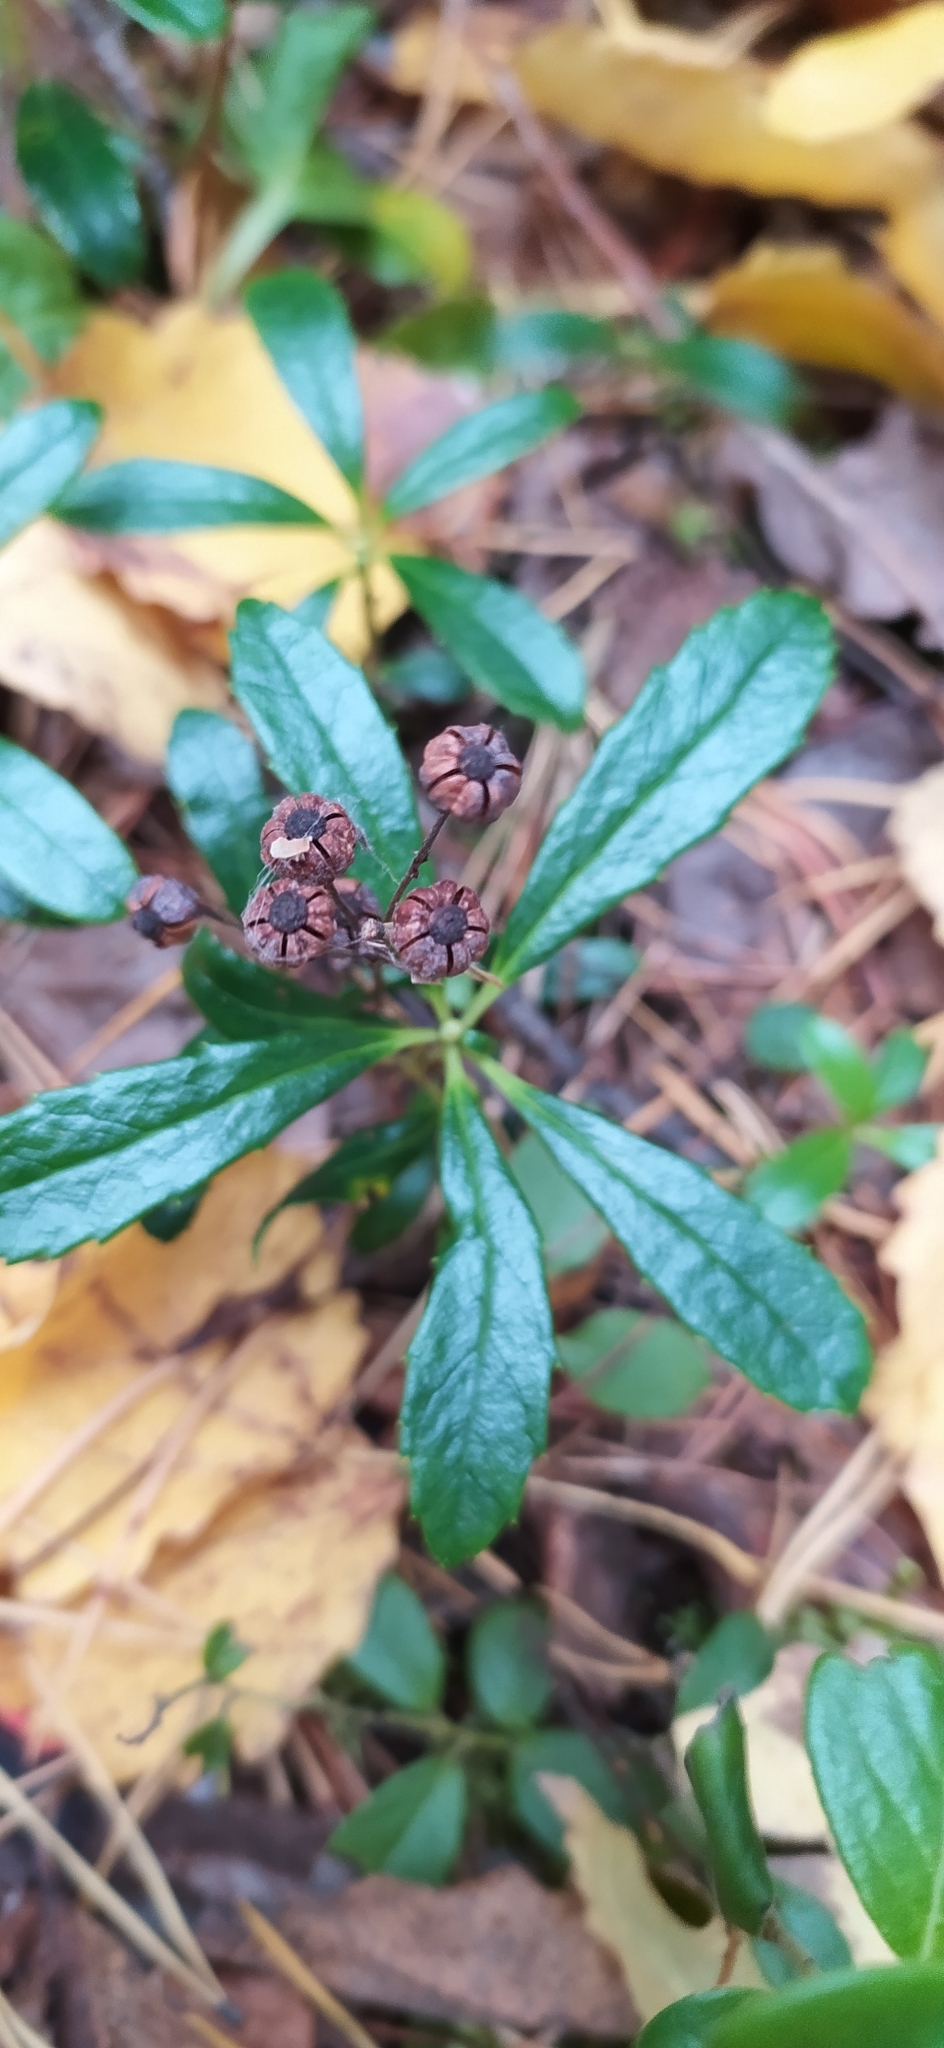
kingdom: Plantae
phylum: Tracheophyta
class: Magnoliopsida
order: Ericales
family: Ericaceae
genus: Chimaphila
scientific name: Chimaphila umbellata
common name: Pipsissewa
